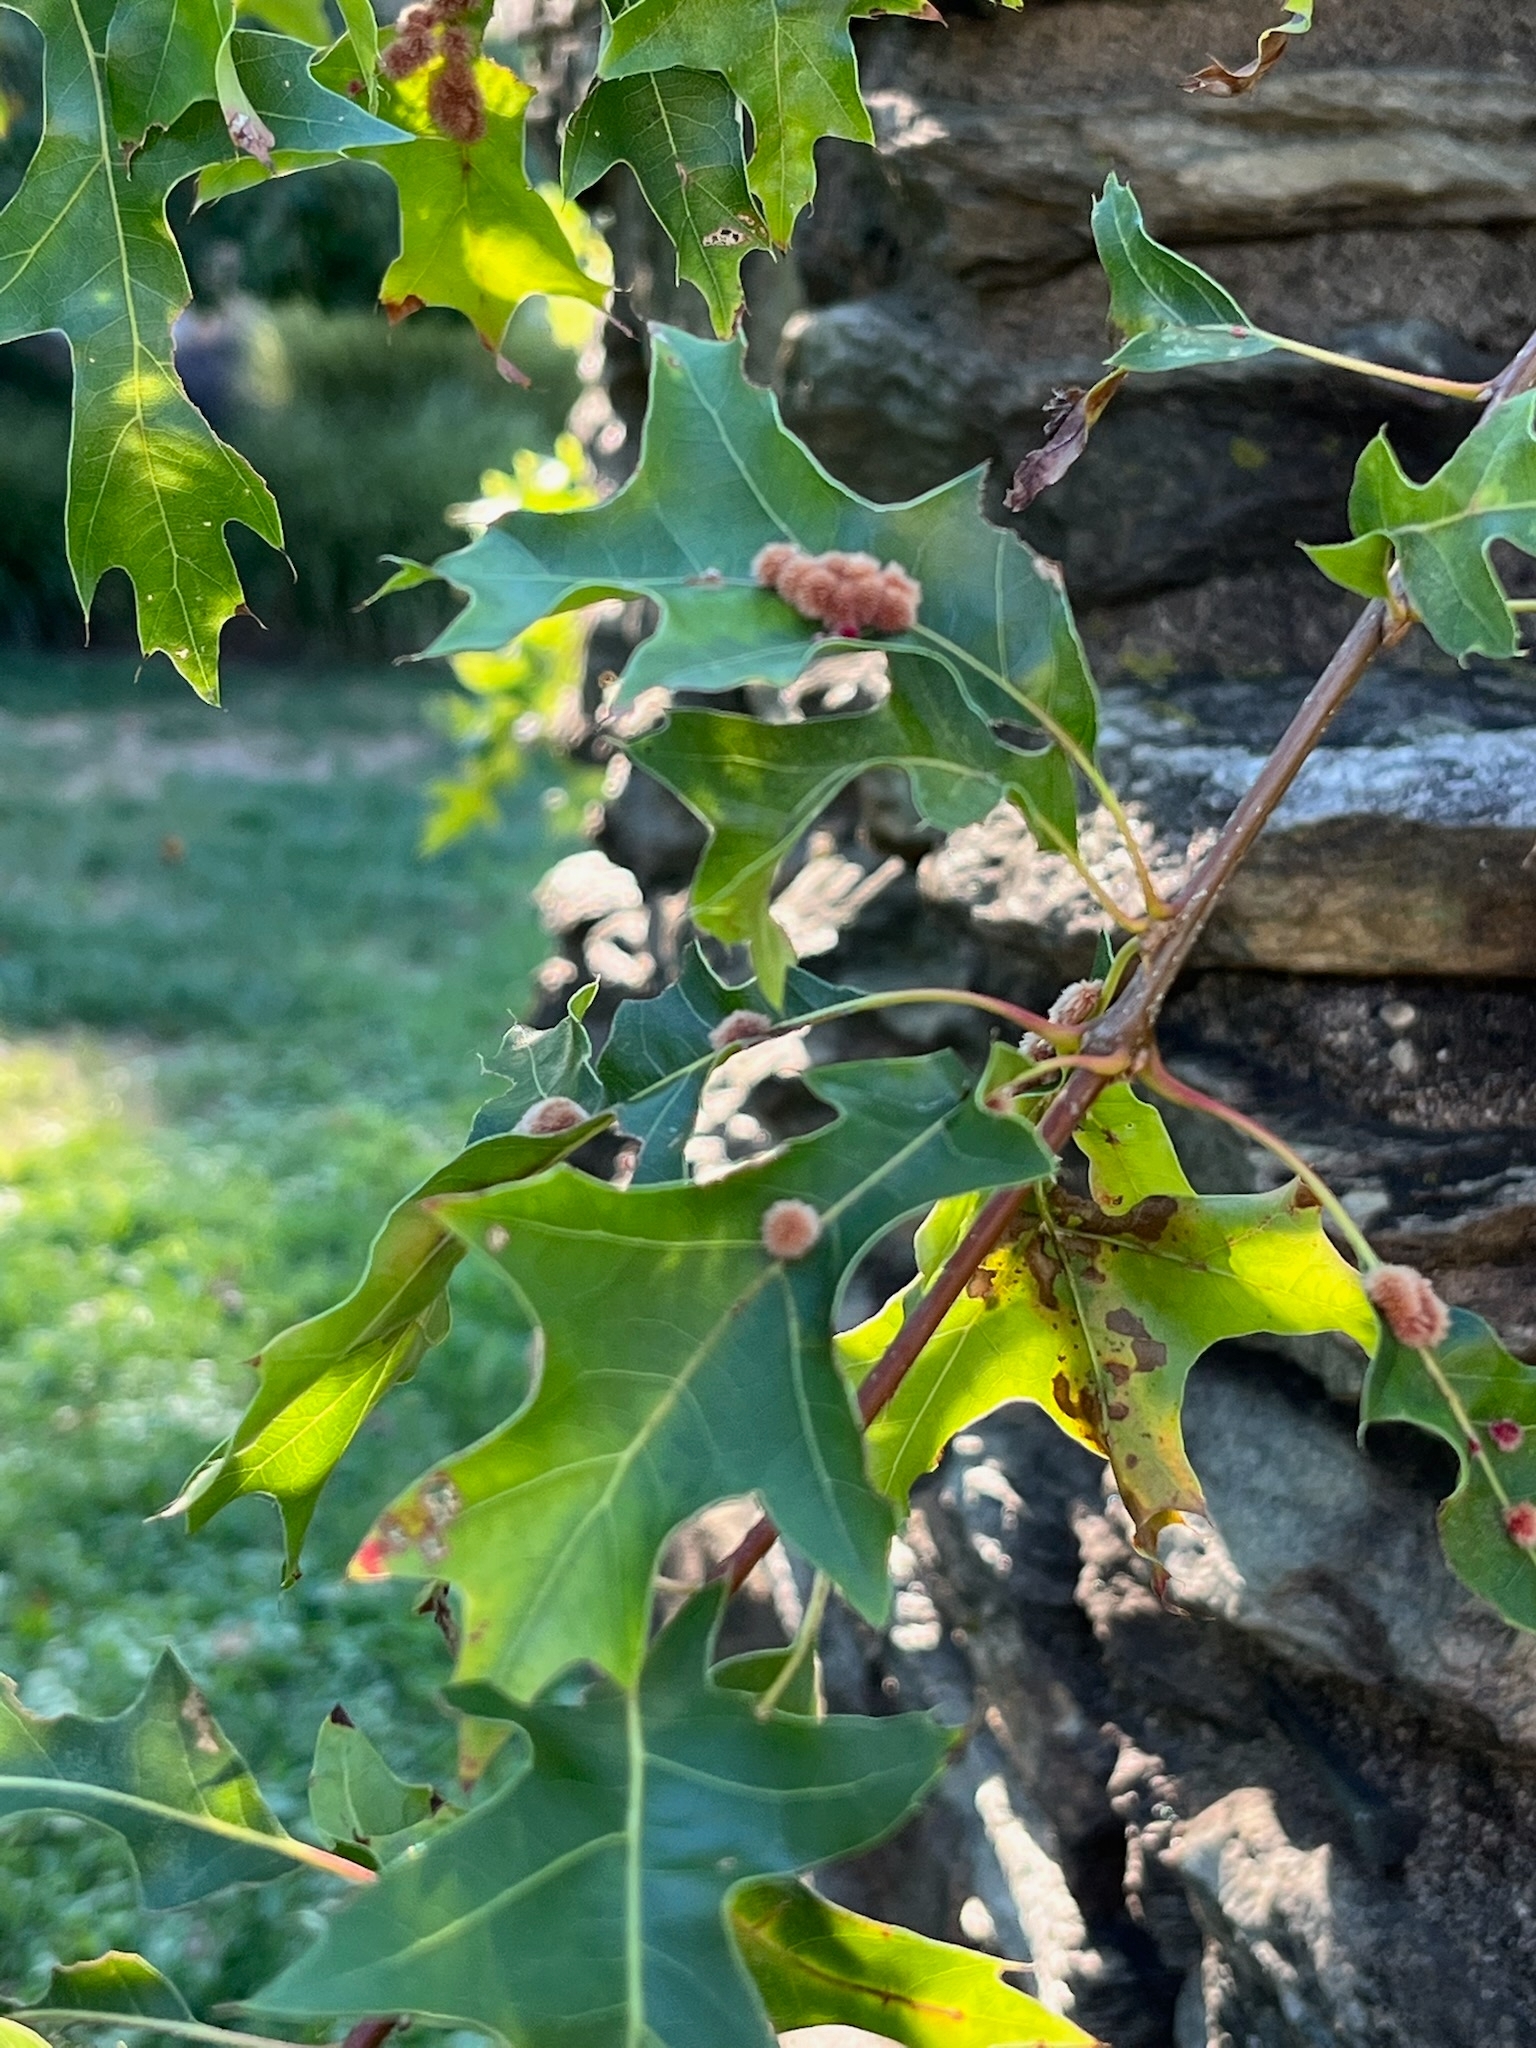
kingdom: Animalia
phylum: Arthropoda
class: Insecta
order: Hymenoptera
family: Cynipidae
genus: Callirhytis
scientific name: Callirhytis
